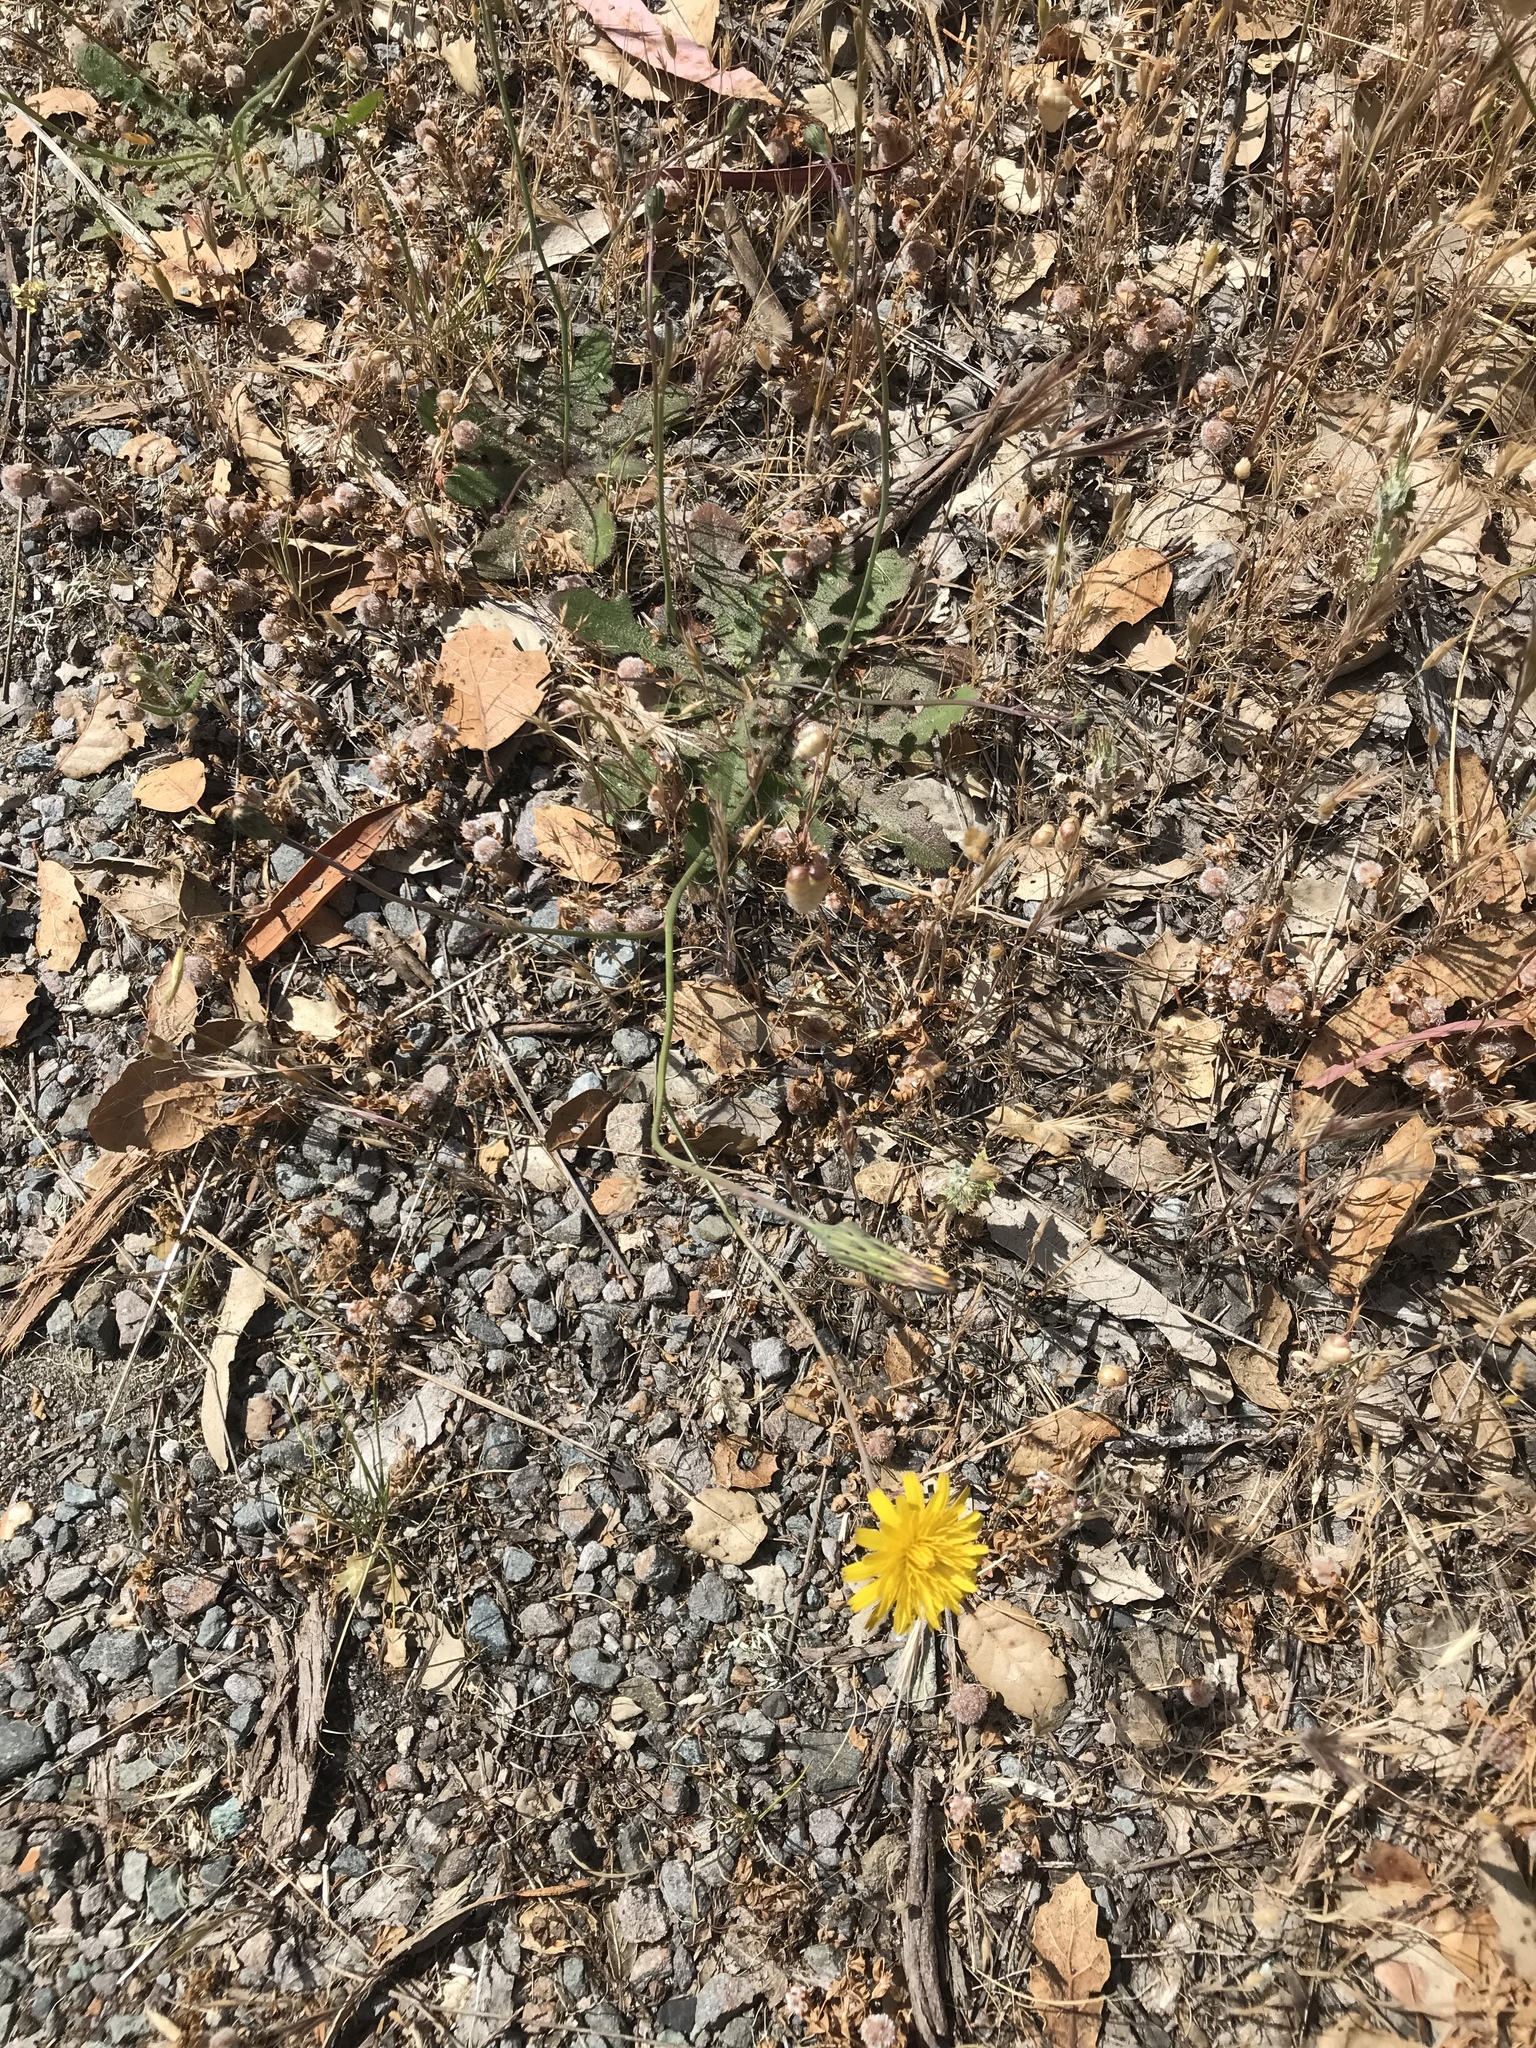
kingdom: Plantae
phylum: Tracheophyta
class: Magnoliopsida
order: Asterales
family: Asteraceae
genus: Hypochaeris
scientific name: Hypochaeris radicata
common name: Flatweed
